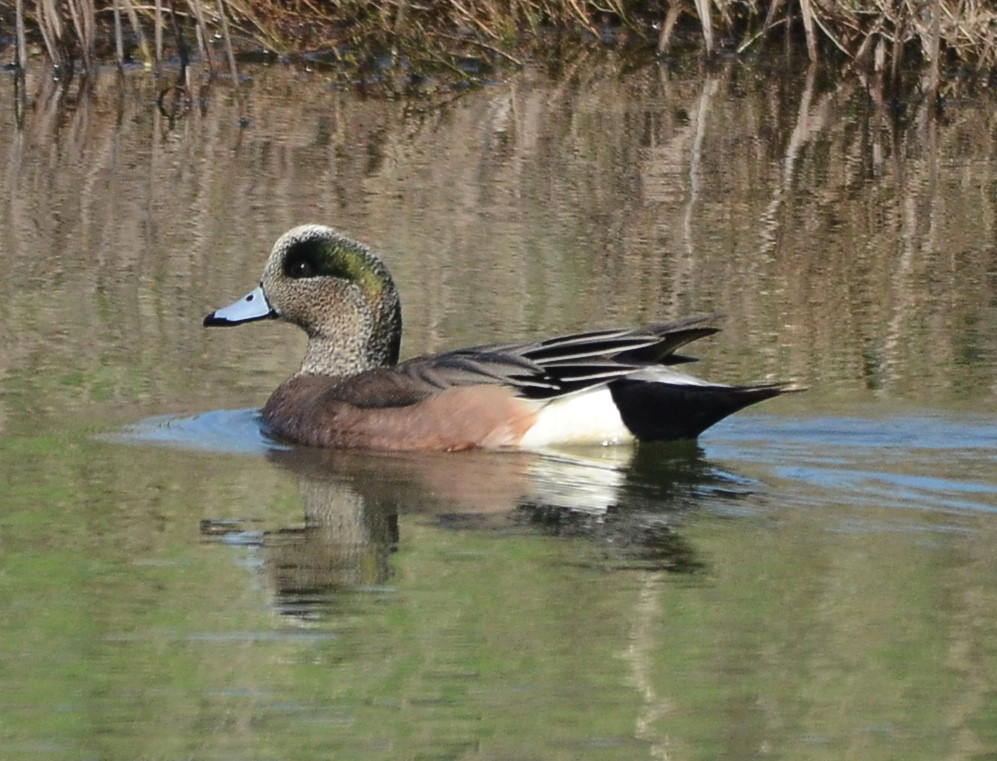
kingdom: Animalia
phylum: Chordata
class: Aves
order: Anseriformes
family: Anatidae
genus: Mareca
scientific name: Mareca americana
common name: American wigeon
